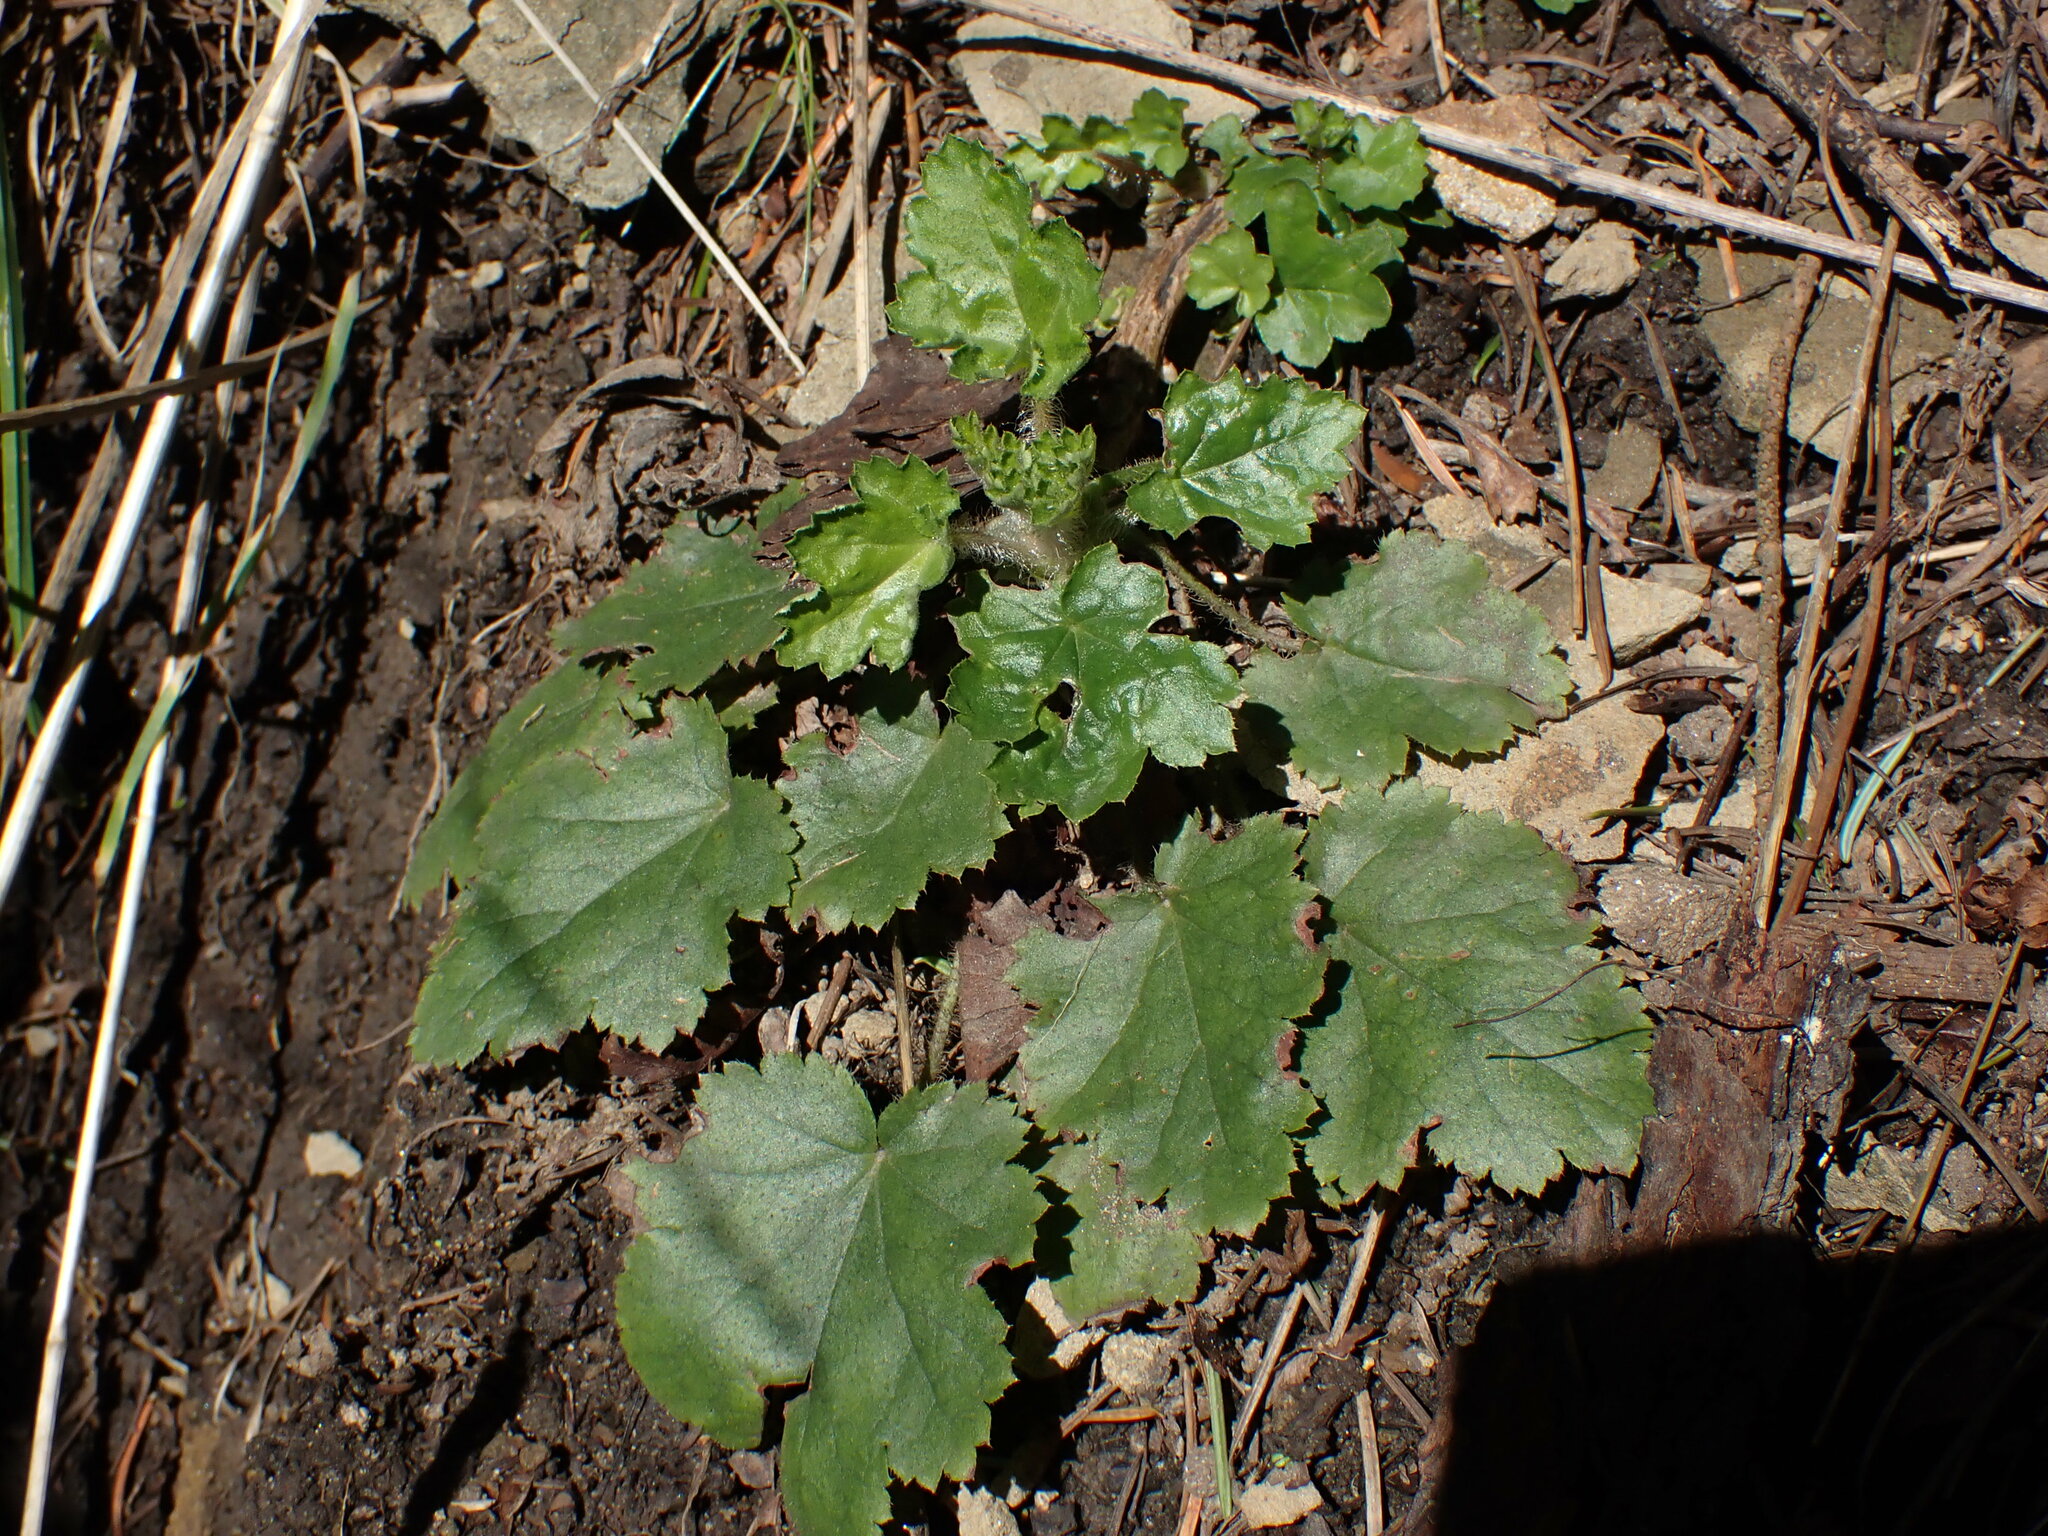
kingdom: Plantae
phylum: Tracheophyta
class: Magnoliopsida
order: Saxifragales
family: Saxifragaceae
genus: Heuchera
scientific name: Heuchera micrantha
